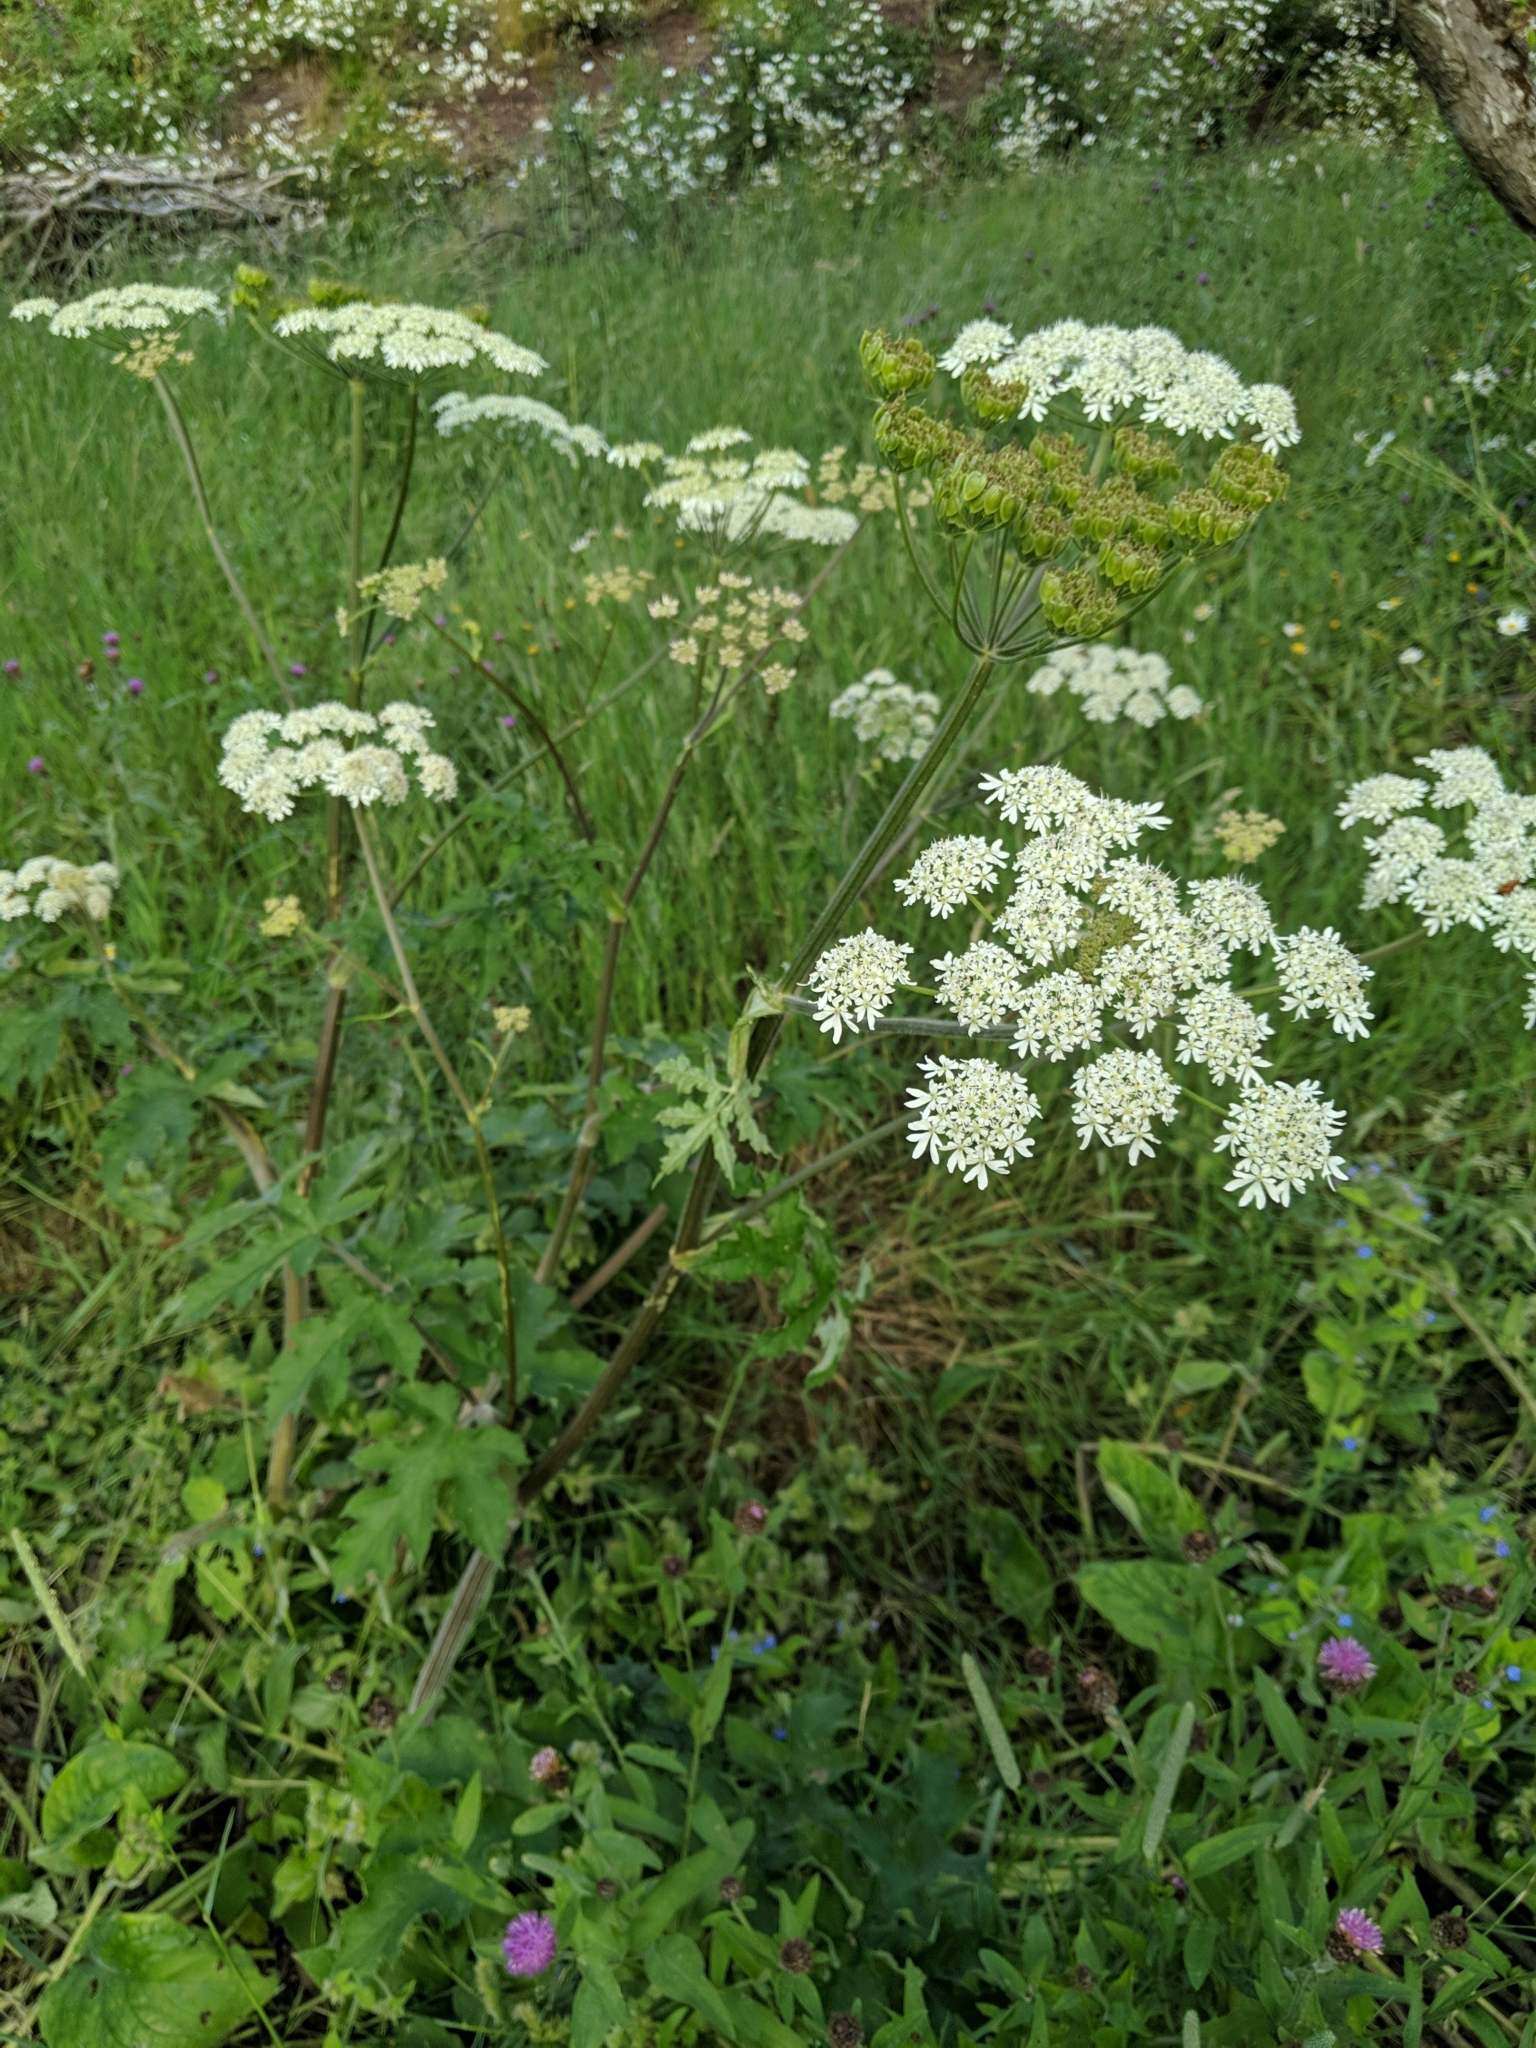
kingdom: Plantae
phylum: Tracheophyta
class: Magnoliopsida
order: Apiales
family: Apiaceae
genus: Heracleum
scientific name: Heracleum sphondylium
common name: Hogweed
